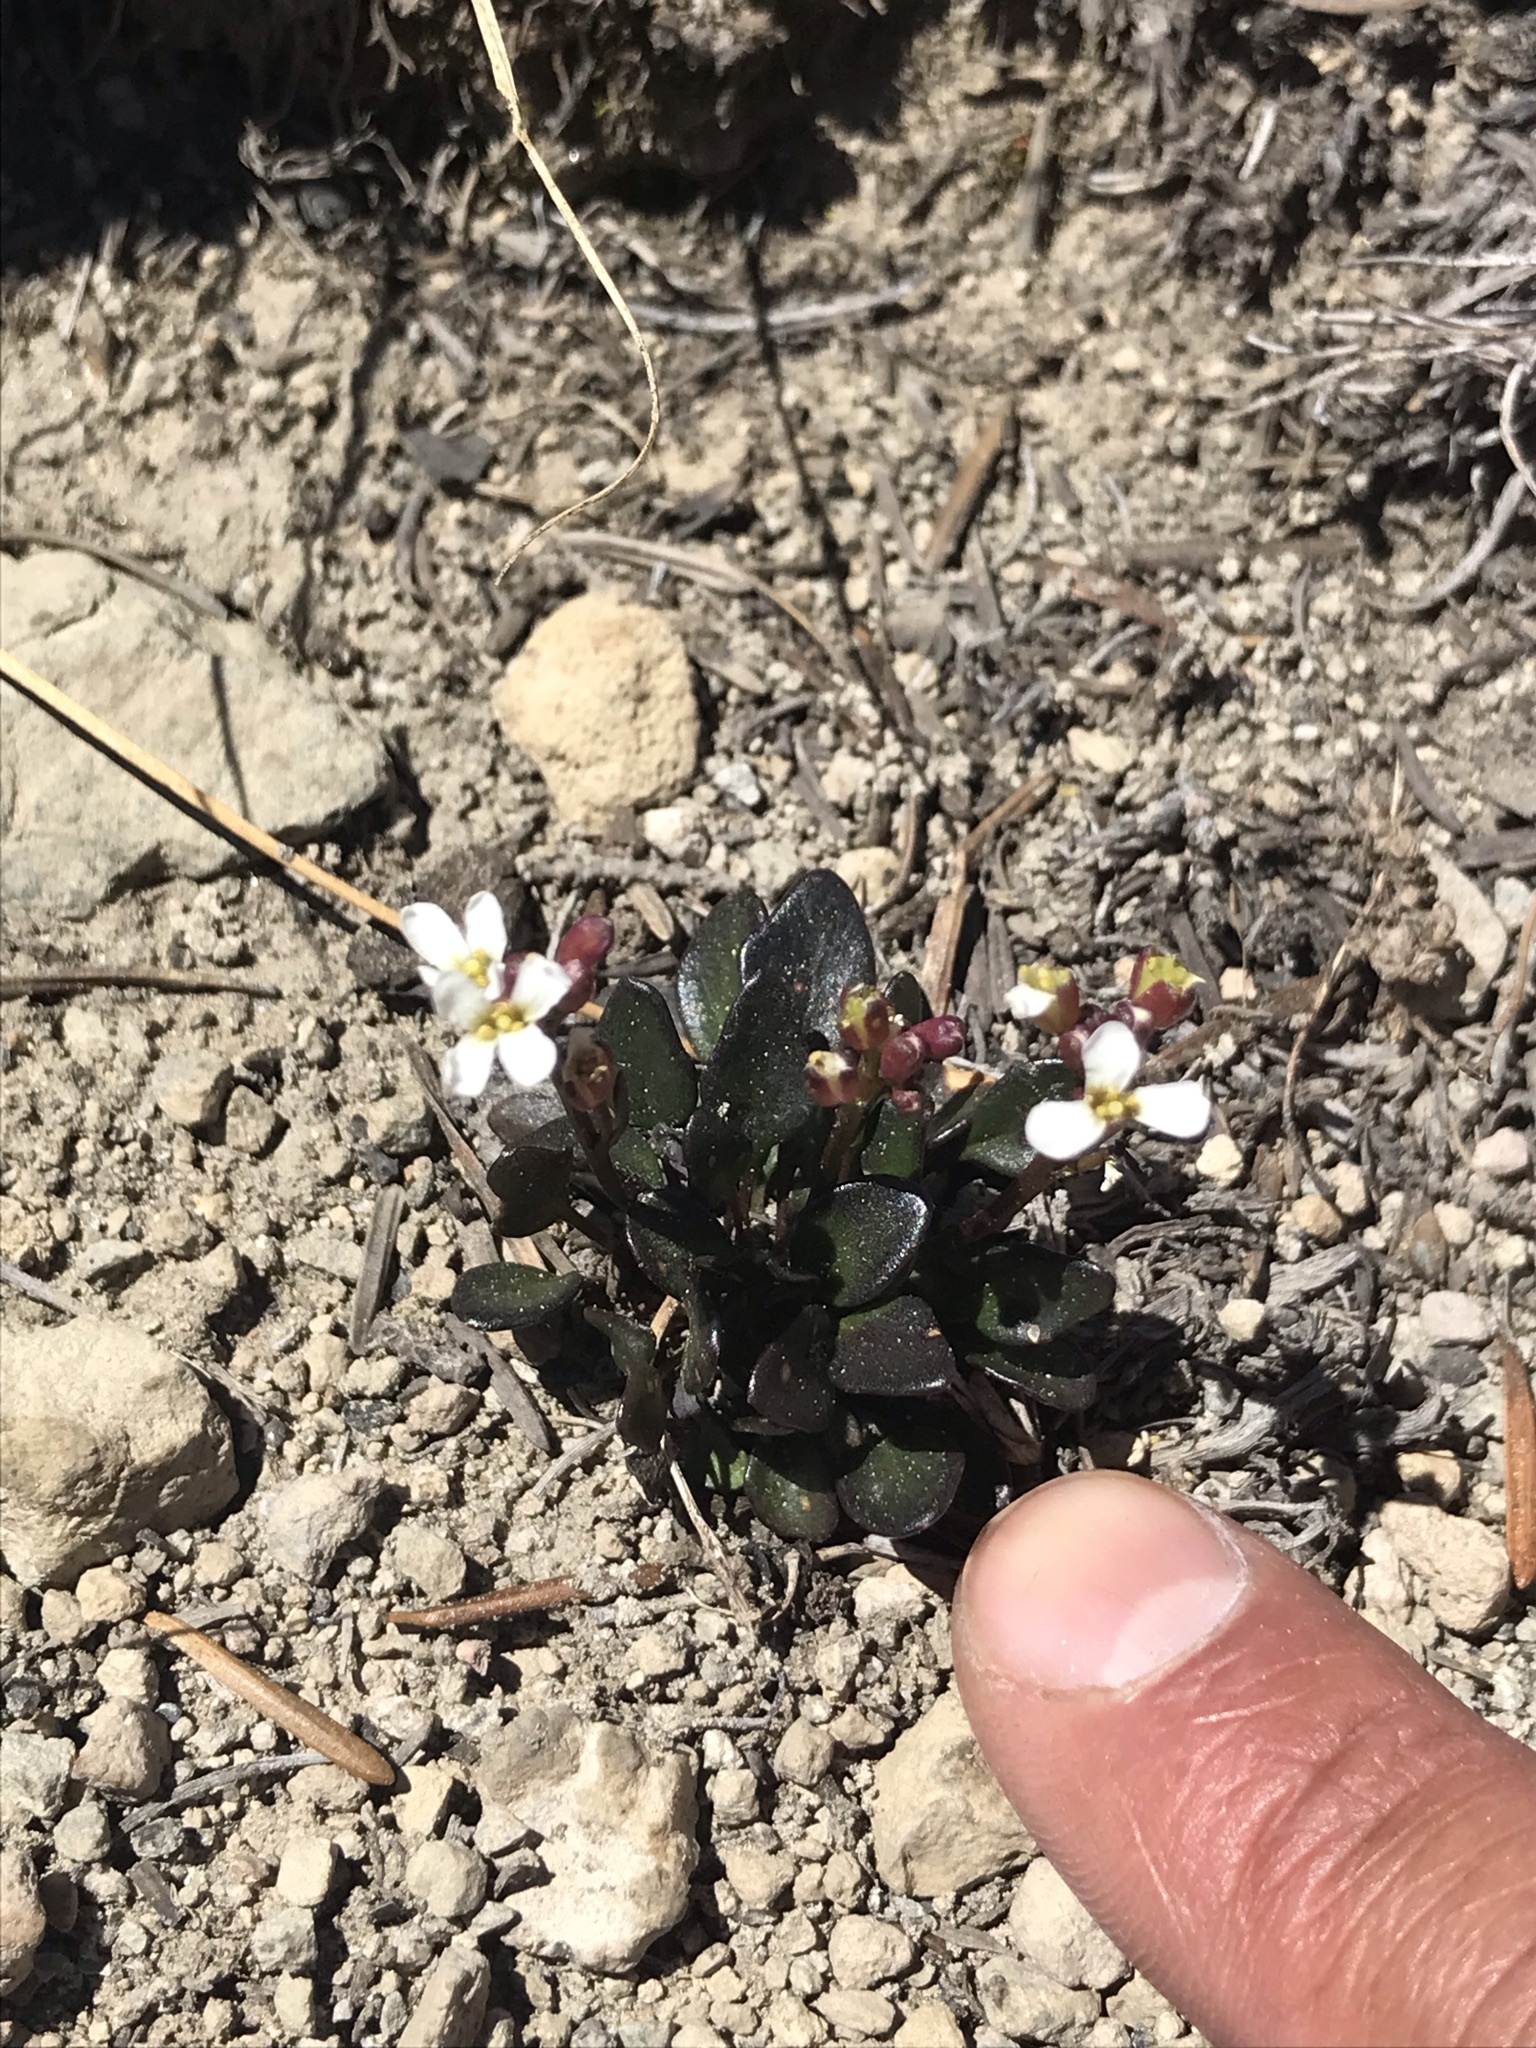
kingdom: Plantae
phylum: Tracheophyta
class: Magnoliopsida
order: Brassicales
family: Brassicaceae
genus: Cardamine
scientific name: Cardamine bellidifolia
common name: Alpine bittercress
